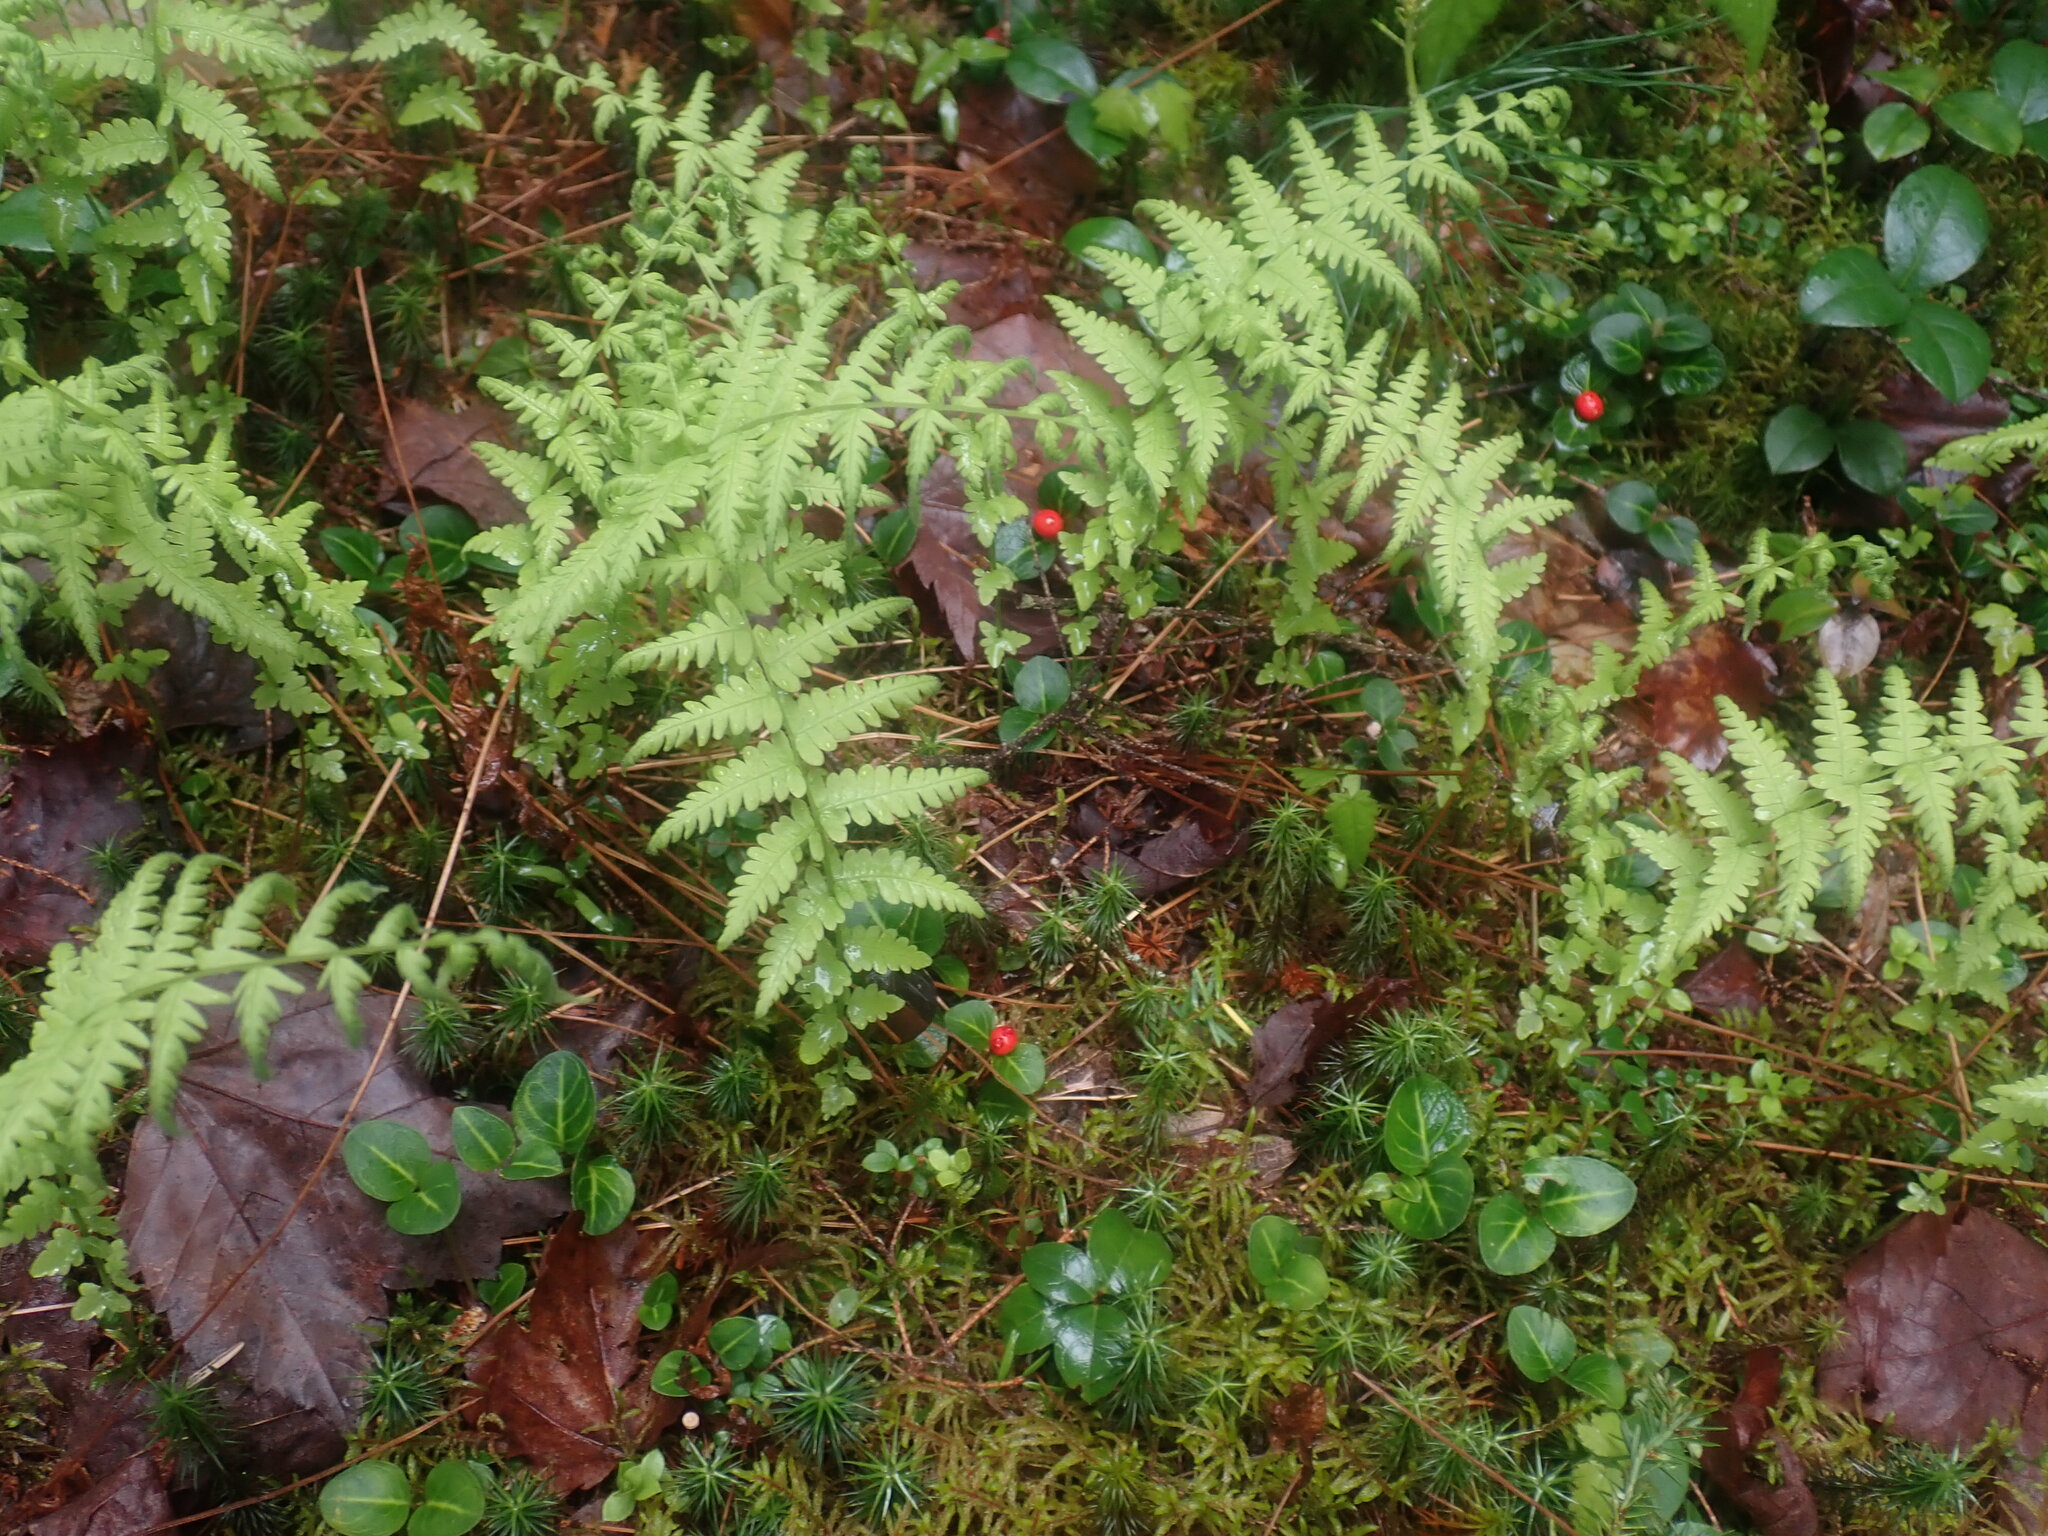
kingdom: Plantae
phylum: Tracheophyta
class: Polypodiopsida
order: Polypodiales
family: Thelypteridaceae
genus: Amauropelta
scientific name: Amauropelta noveboracensis
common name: New york fern
